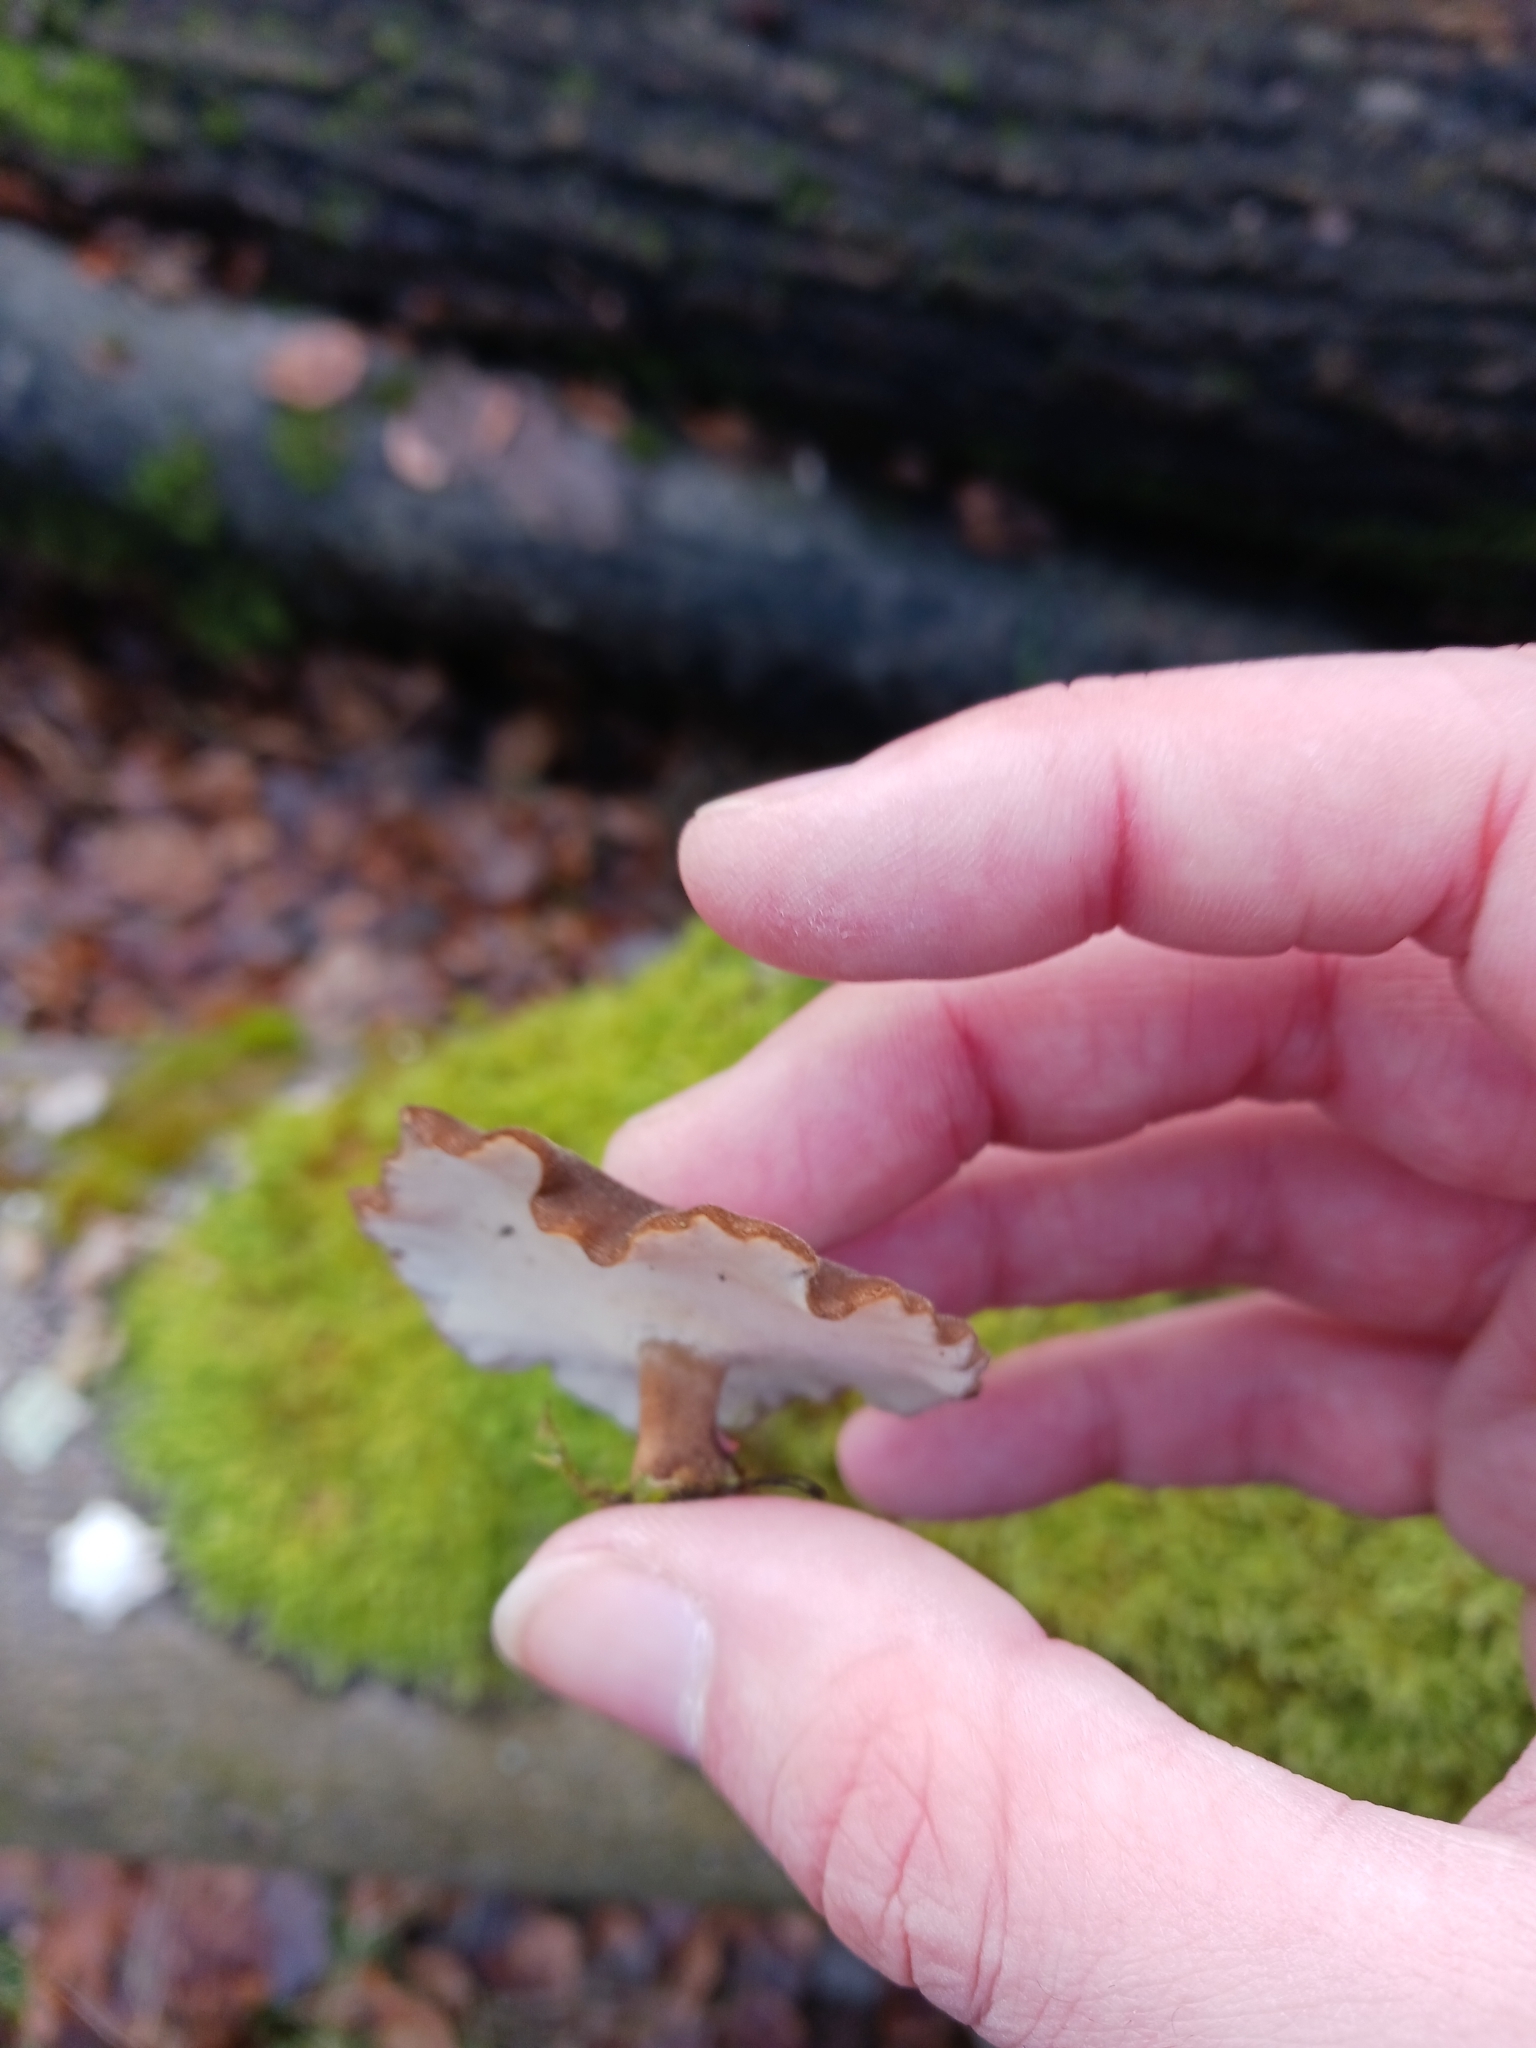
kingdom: Fungi
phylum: Basidiomycota
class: Agaricomycetes
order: Polyporales
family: Polyporaceae
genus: Lentinus
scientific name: Lentinus brumalis
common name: Winter polypore
